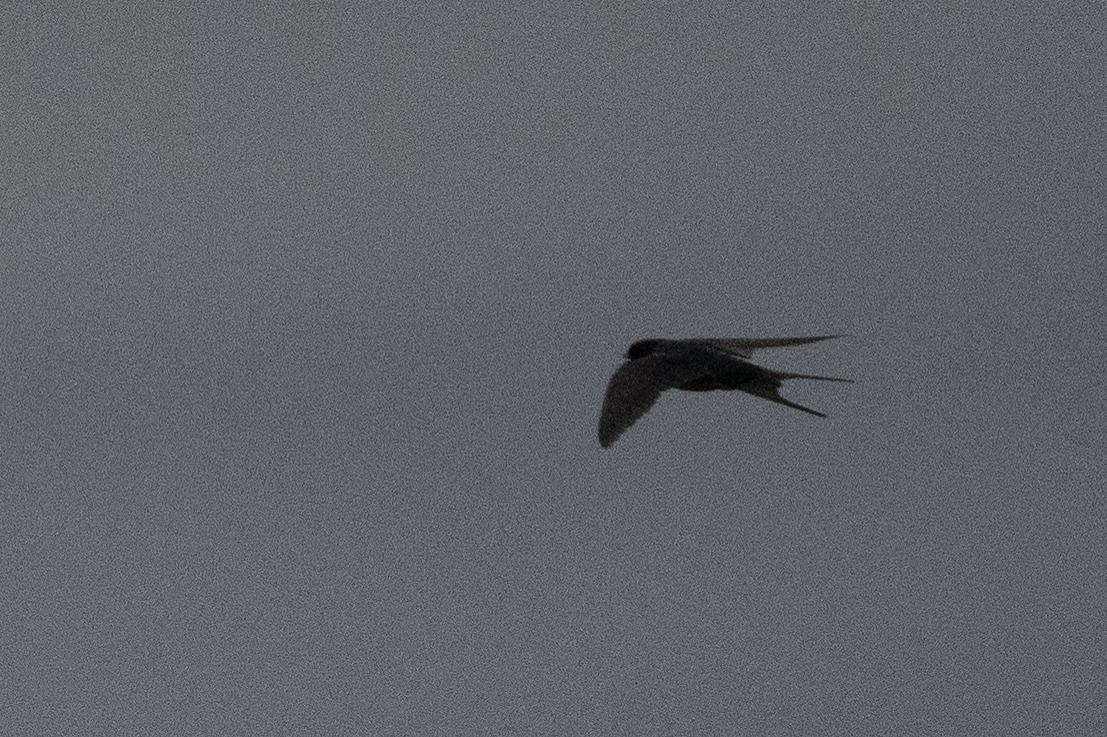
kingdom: Animalia
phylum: Chordata
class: Aves
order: Passeriformes
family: Hirundinidae
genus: Hirundo
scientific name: Hirundo rustica
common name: Barn swallow
